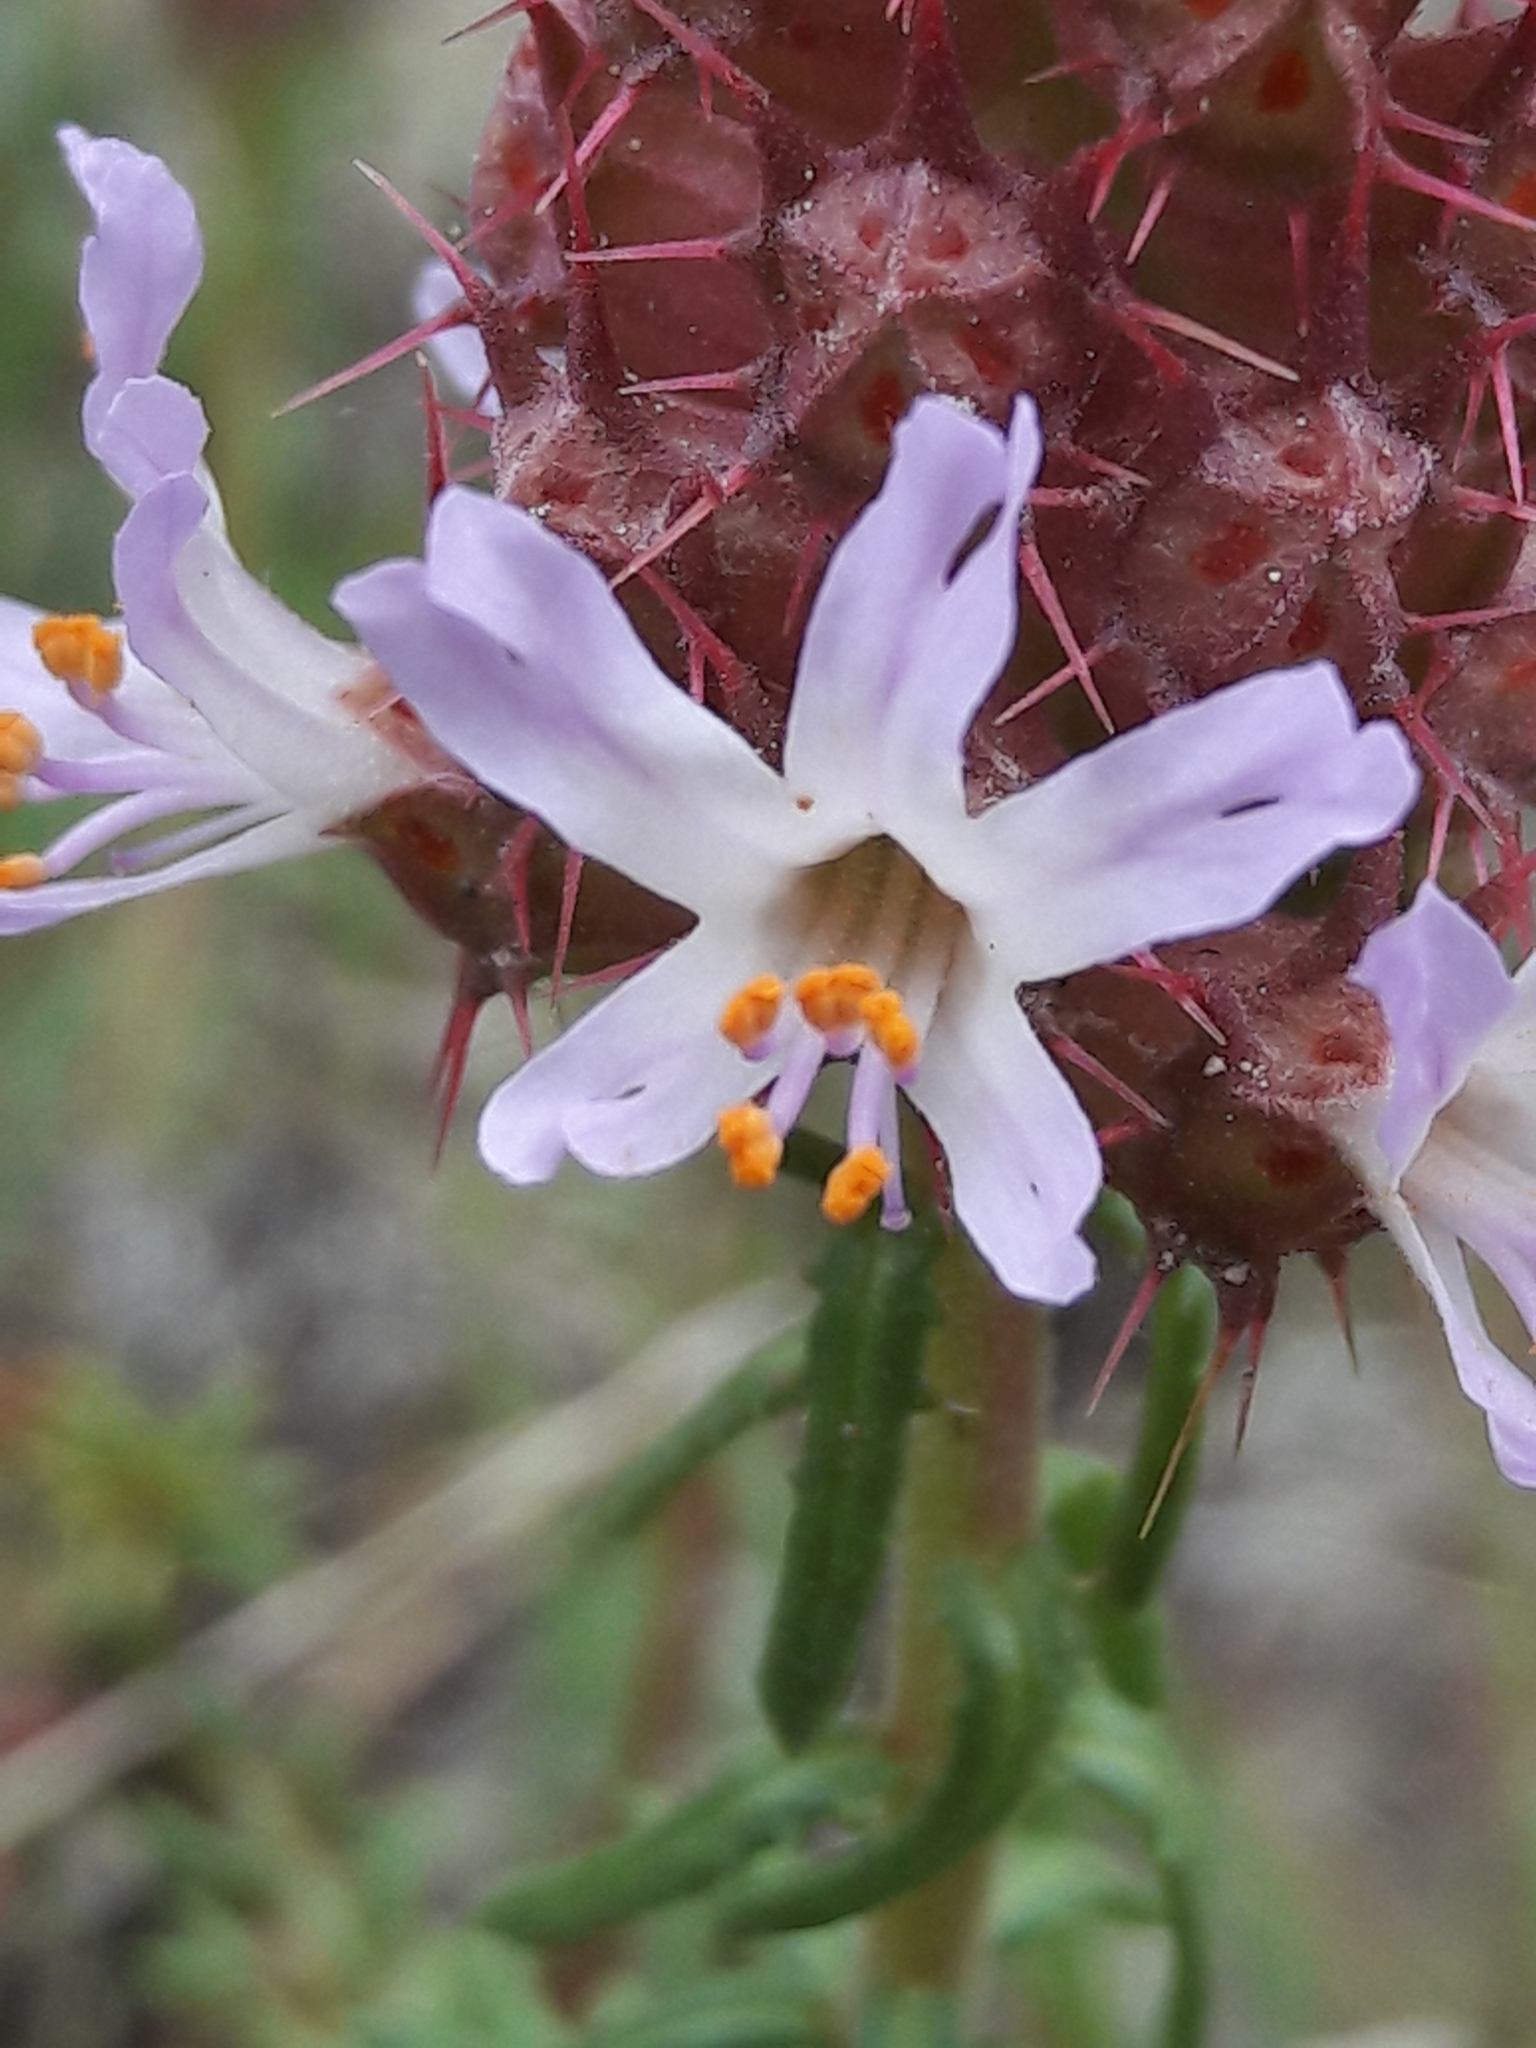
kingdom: Plantae
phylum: Tracheophyta
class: Magnoliopsida
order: Ericales
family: Primulaceae
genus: Coris
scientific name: Coris monspeliensis
